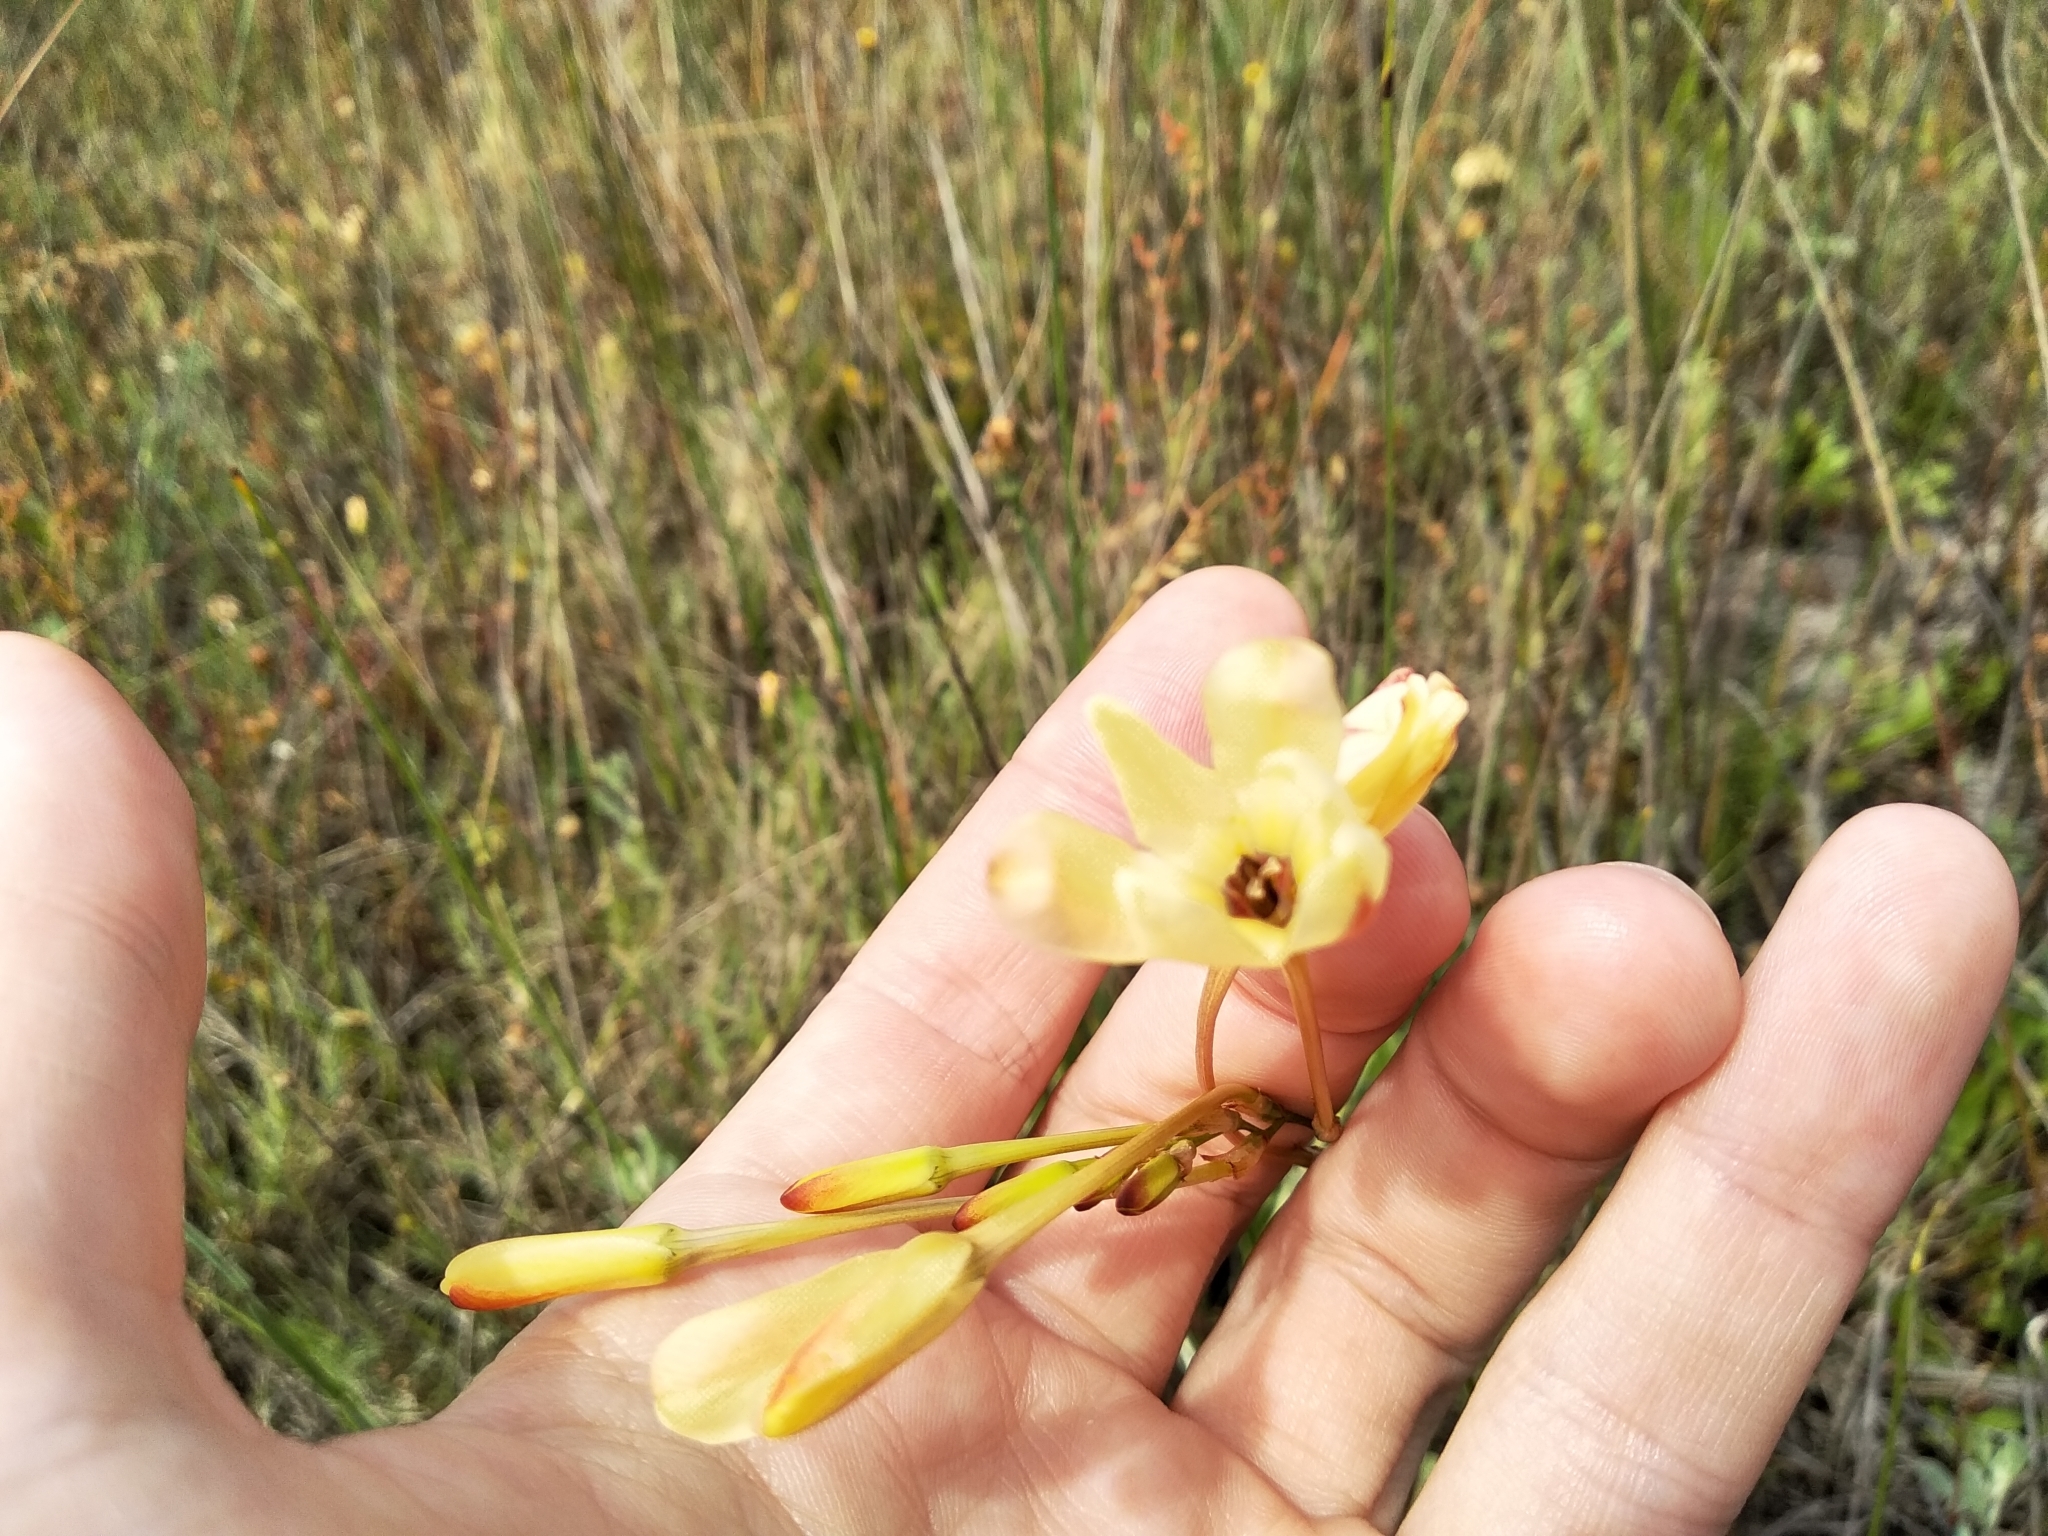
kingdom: Plantae
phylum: Tracheophyta
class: Liliopsida
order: Asparagales
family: Iridaceae
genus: Ixia
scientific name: Ixia paniculata
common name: Tubular corn-lily
